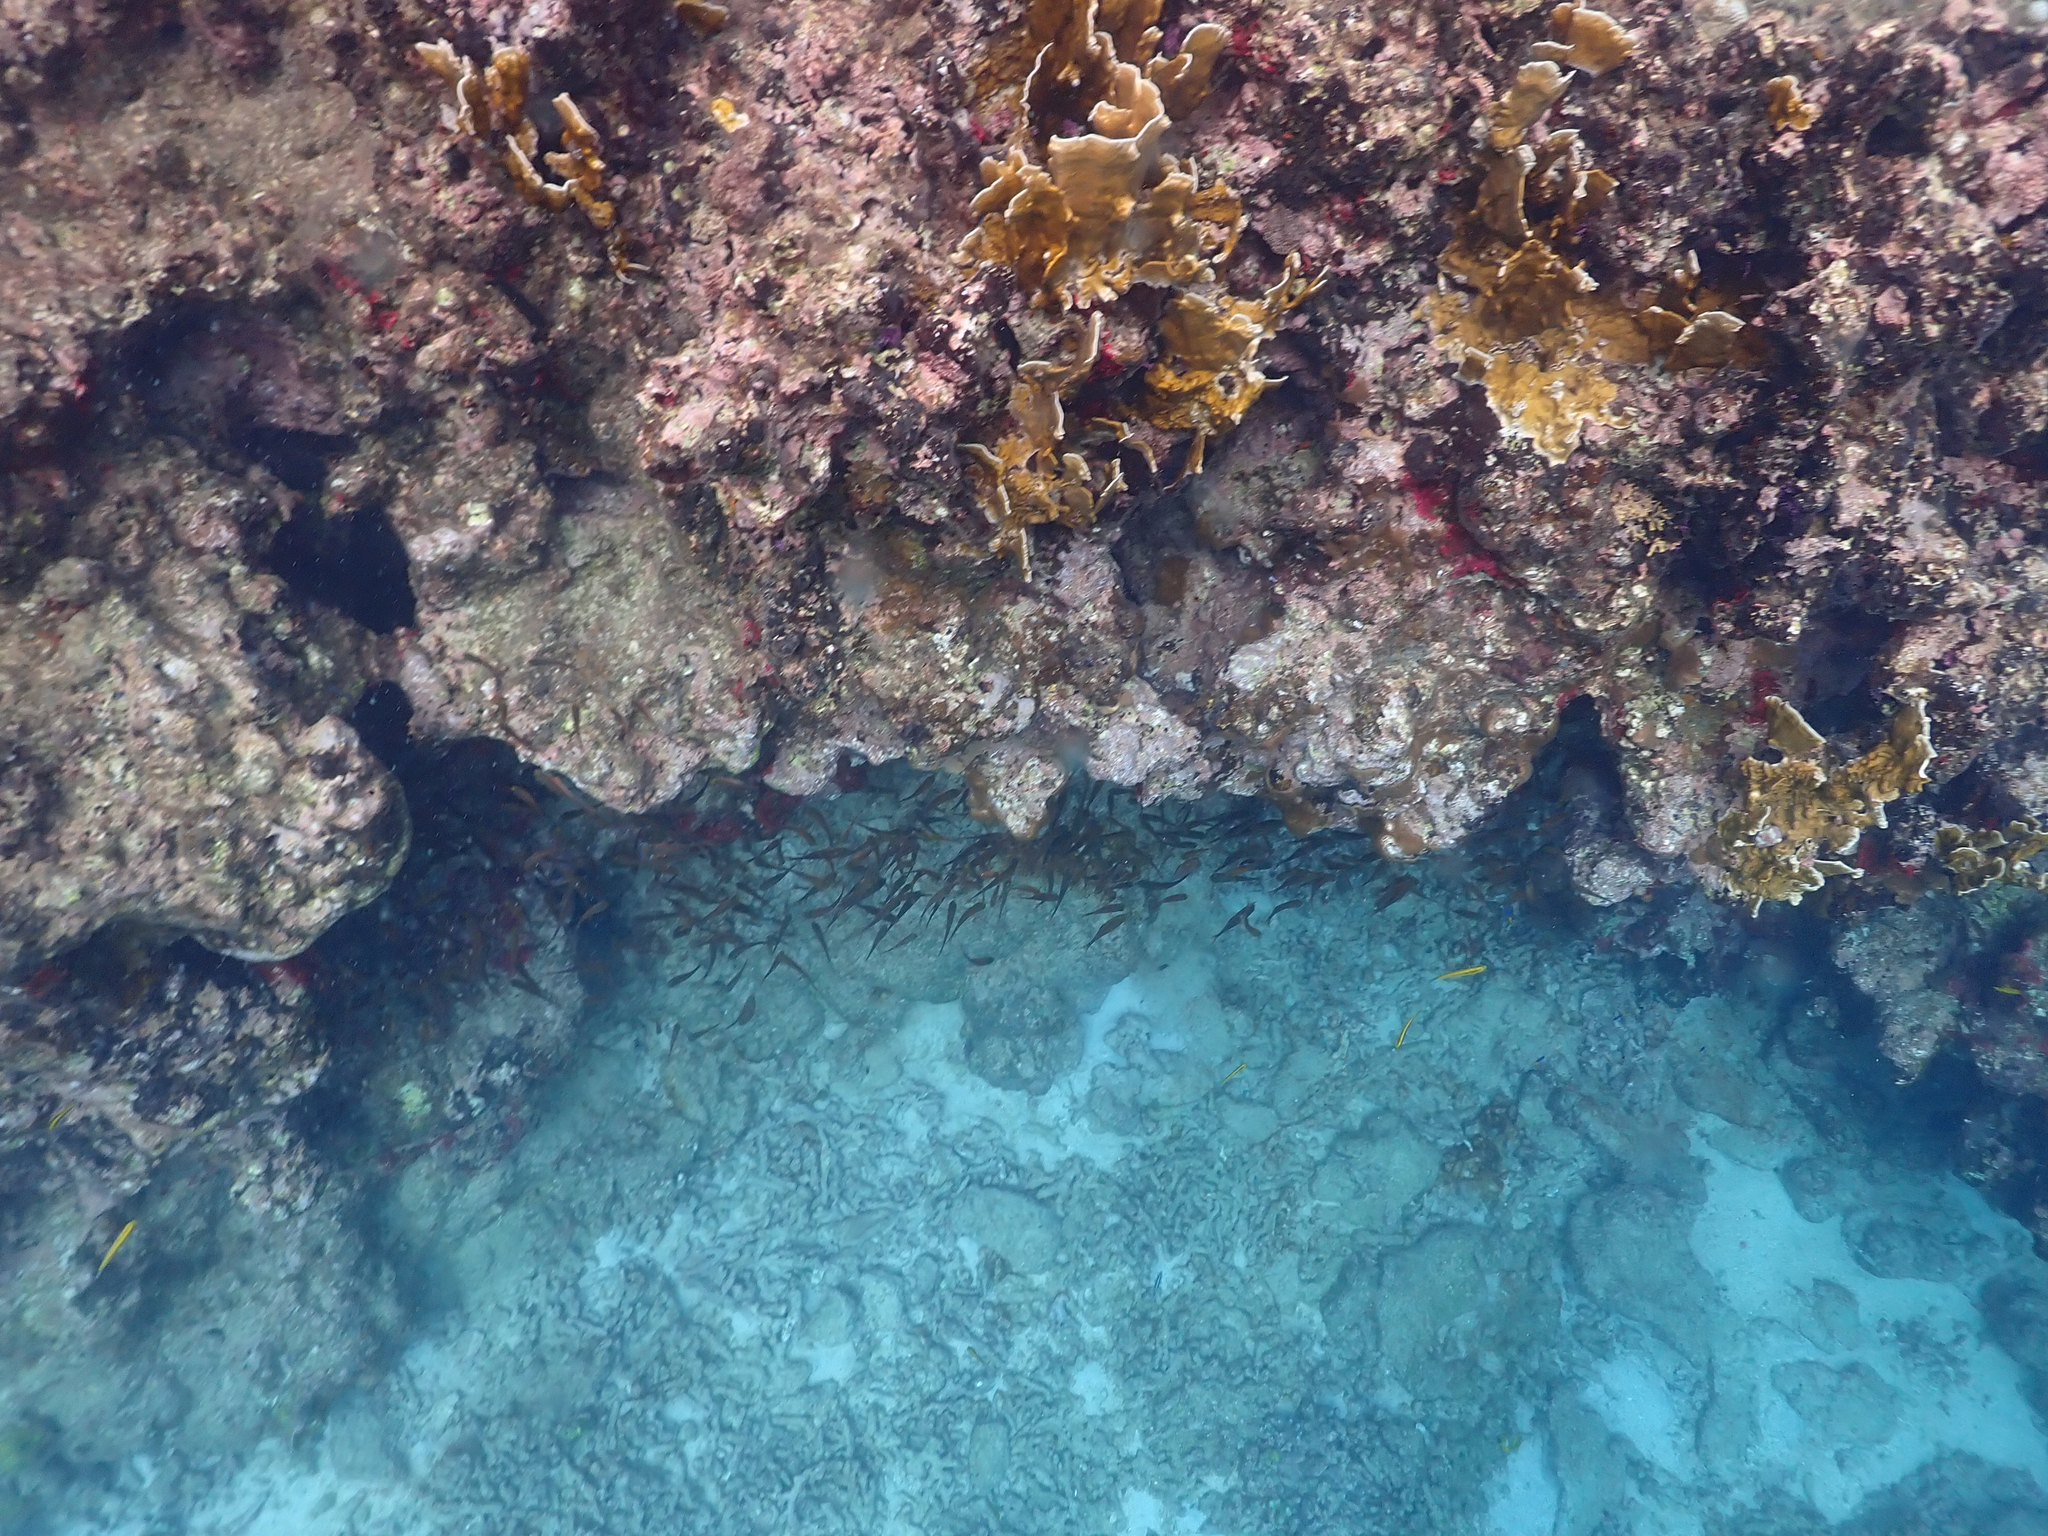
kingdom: Animalia
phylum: Chordata
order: Perciformes
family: Pempheridae
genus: Pempheris
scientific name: Pempheris schomburgkii
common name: Glassy sweeper
